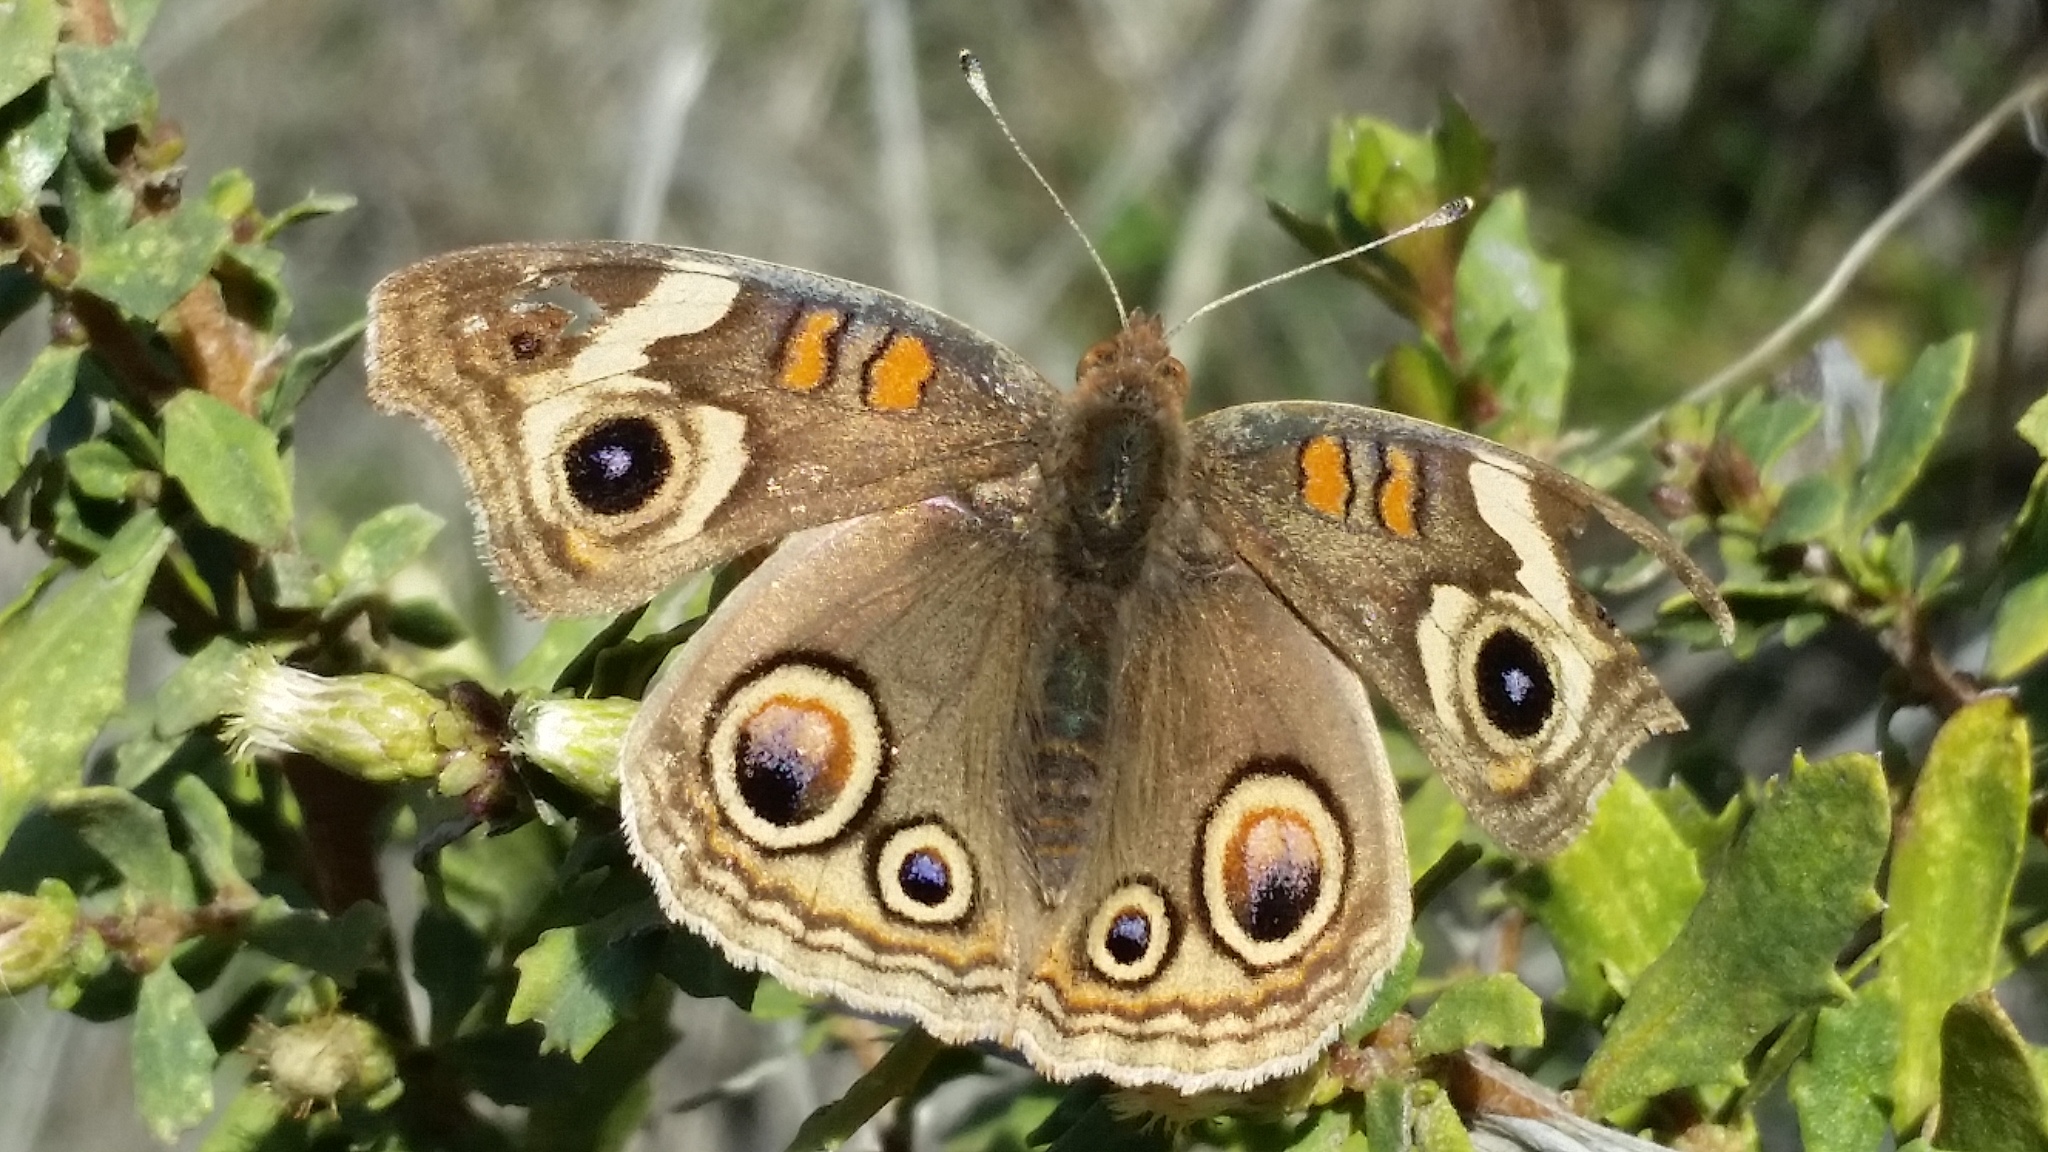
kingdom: Animalia
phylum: Arthropoda
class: Insecta
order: Lepidoptera
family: Nymphalidae
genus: Junonia
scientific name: Junonia grisea
